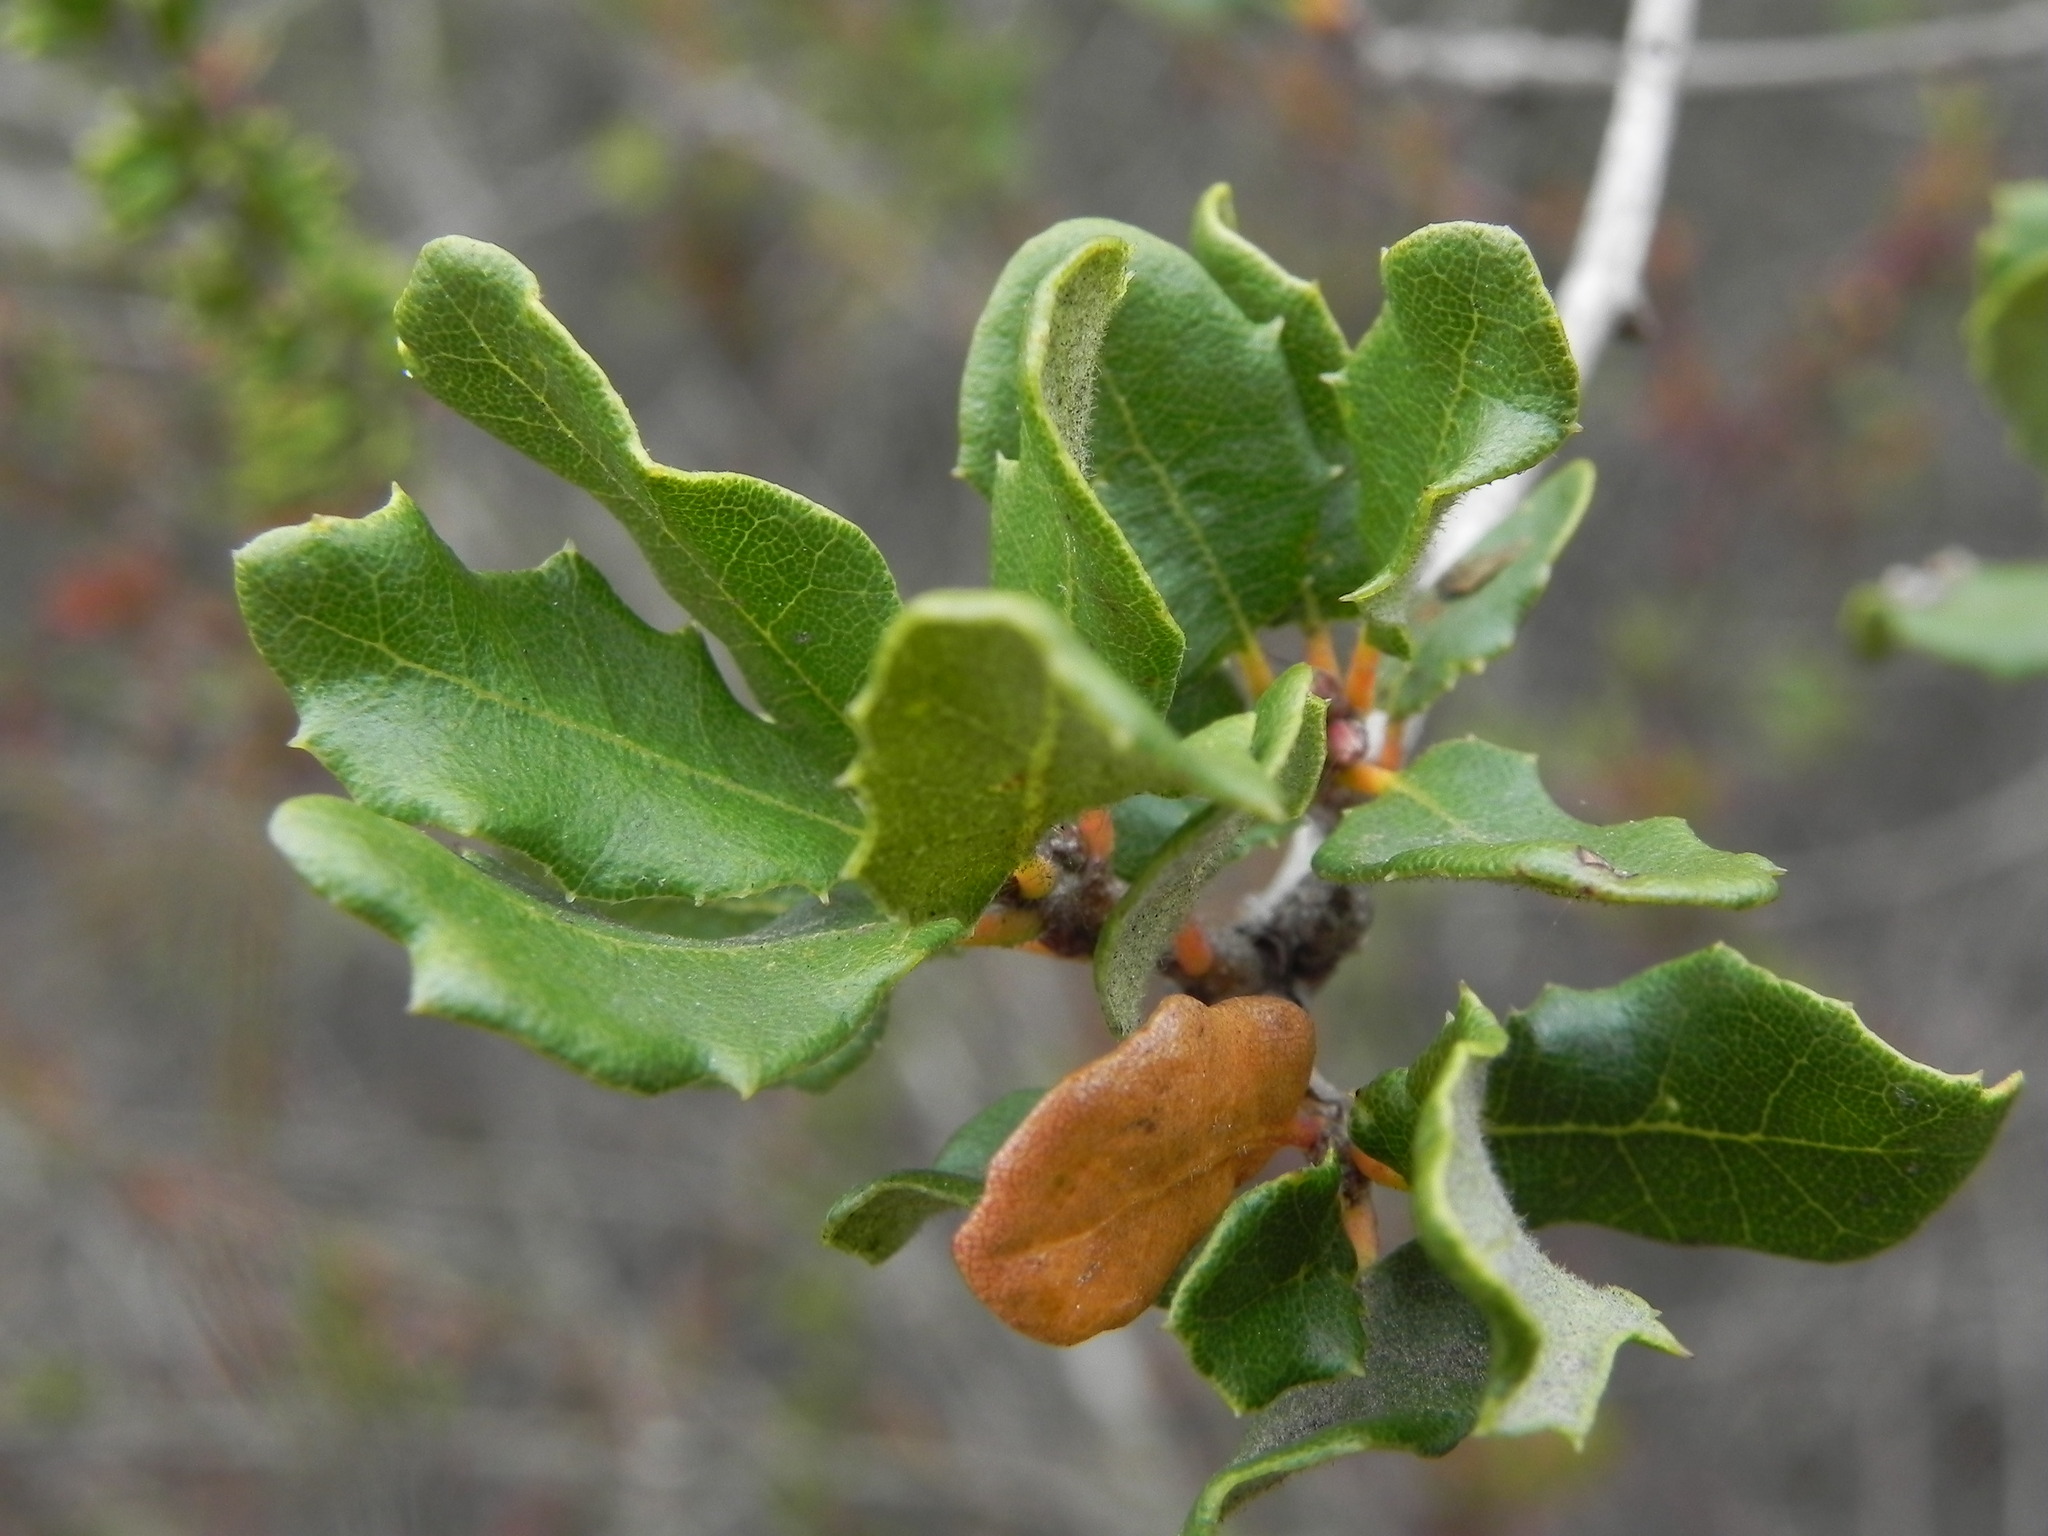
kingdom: Plantae
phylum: Tracheophyta
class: Magnoliopsida
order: Fagales
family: Fagaceae
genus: Quercus
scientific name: Quercus dumosa
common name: Coastal sage scrub oak
